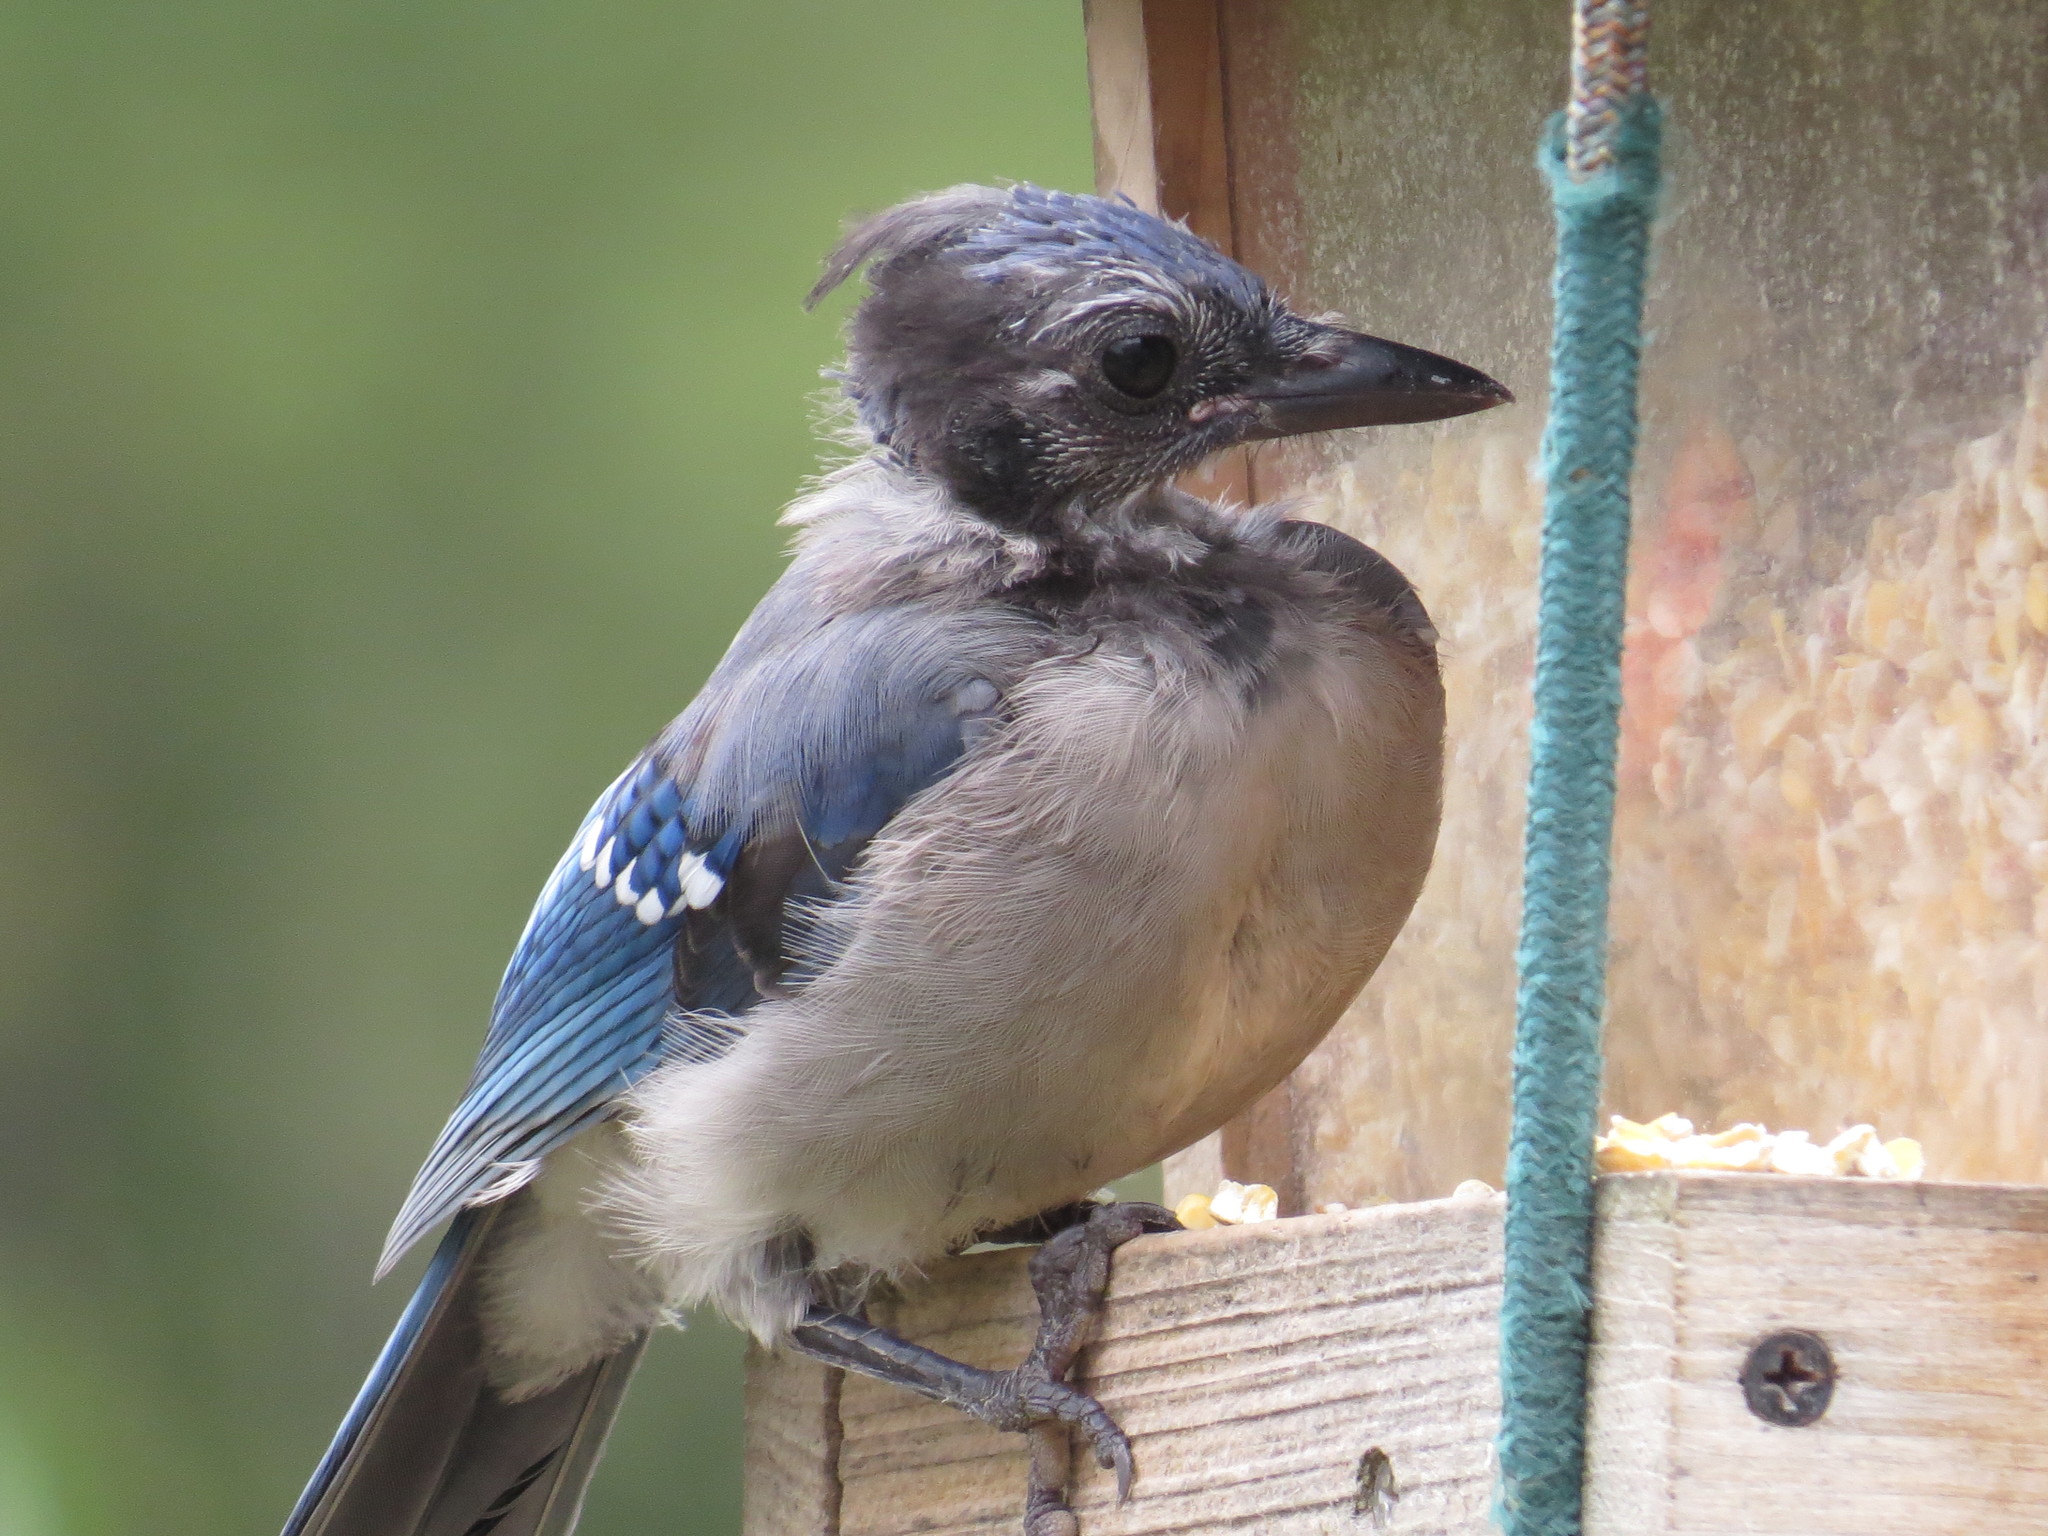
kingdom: Animalia
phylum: Chordata
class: Aves
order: Passeriformes
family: Corvidae
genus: Cyanocitta
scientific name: Cyanocitta cristata
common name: Blue jay
